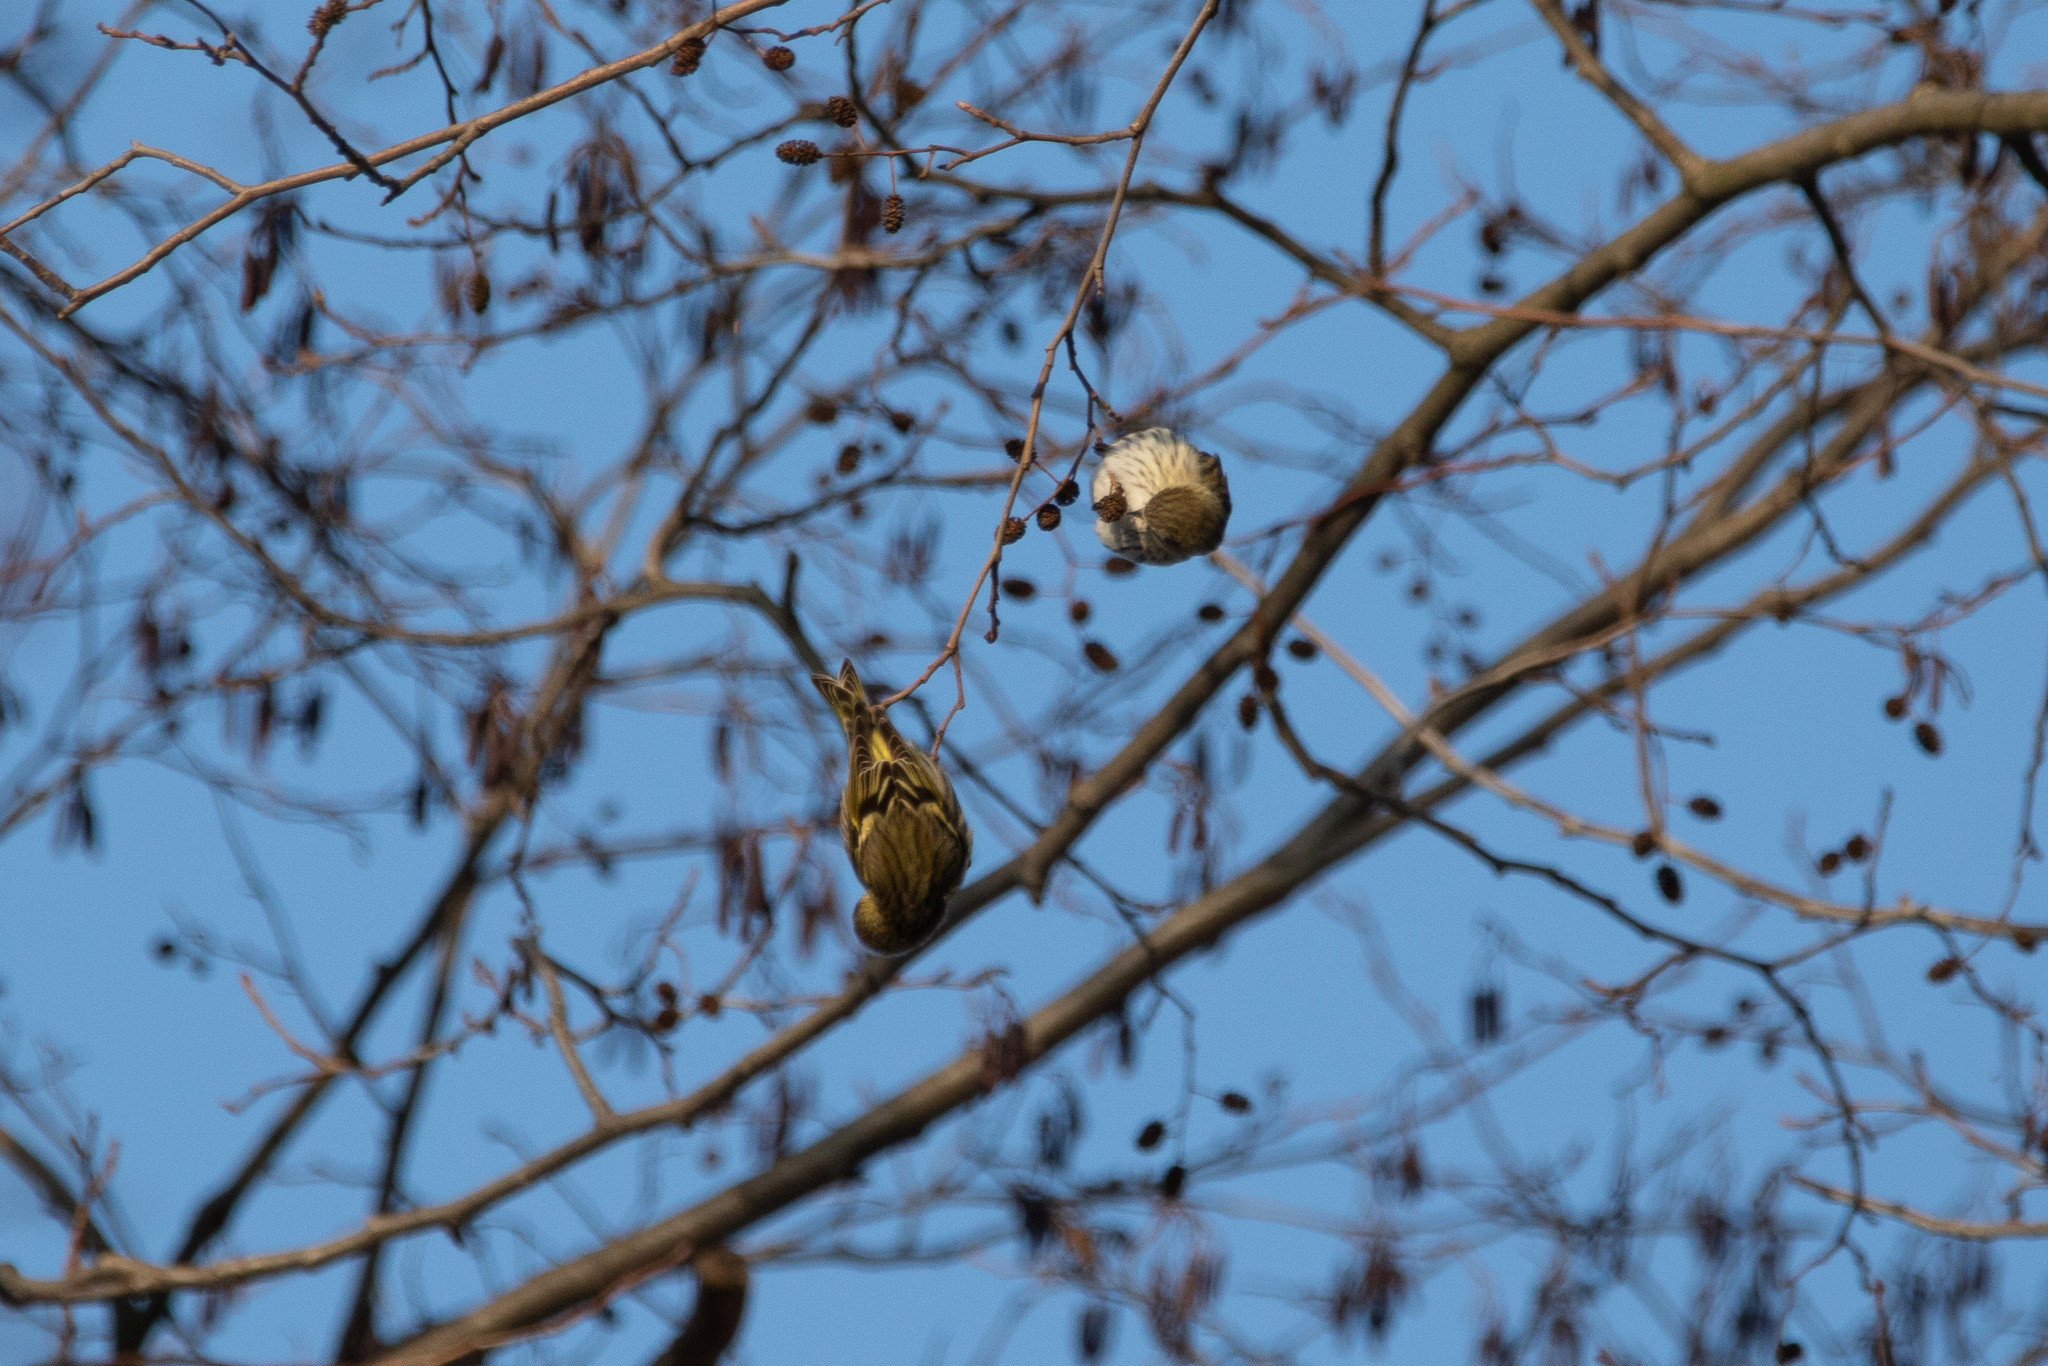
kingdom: Animalia
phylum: Chordata
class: Aves
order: Passeriformes
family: Fringillidae
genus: Spinus
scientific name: Spinus spinus
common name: Eurasian siskin
